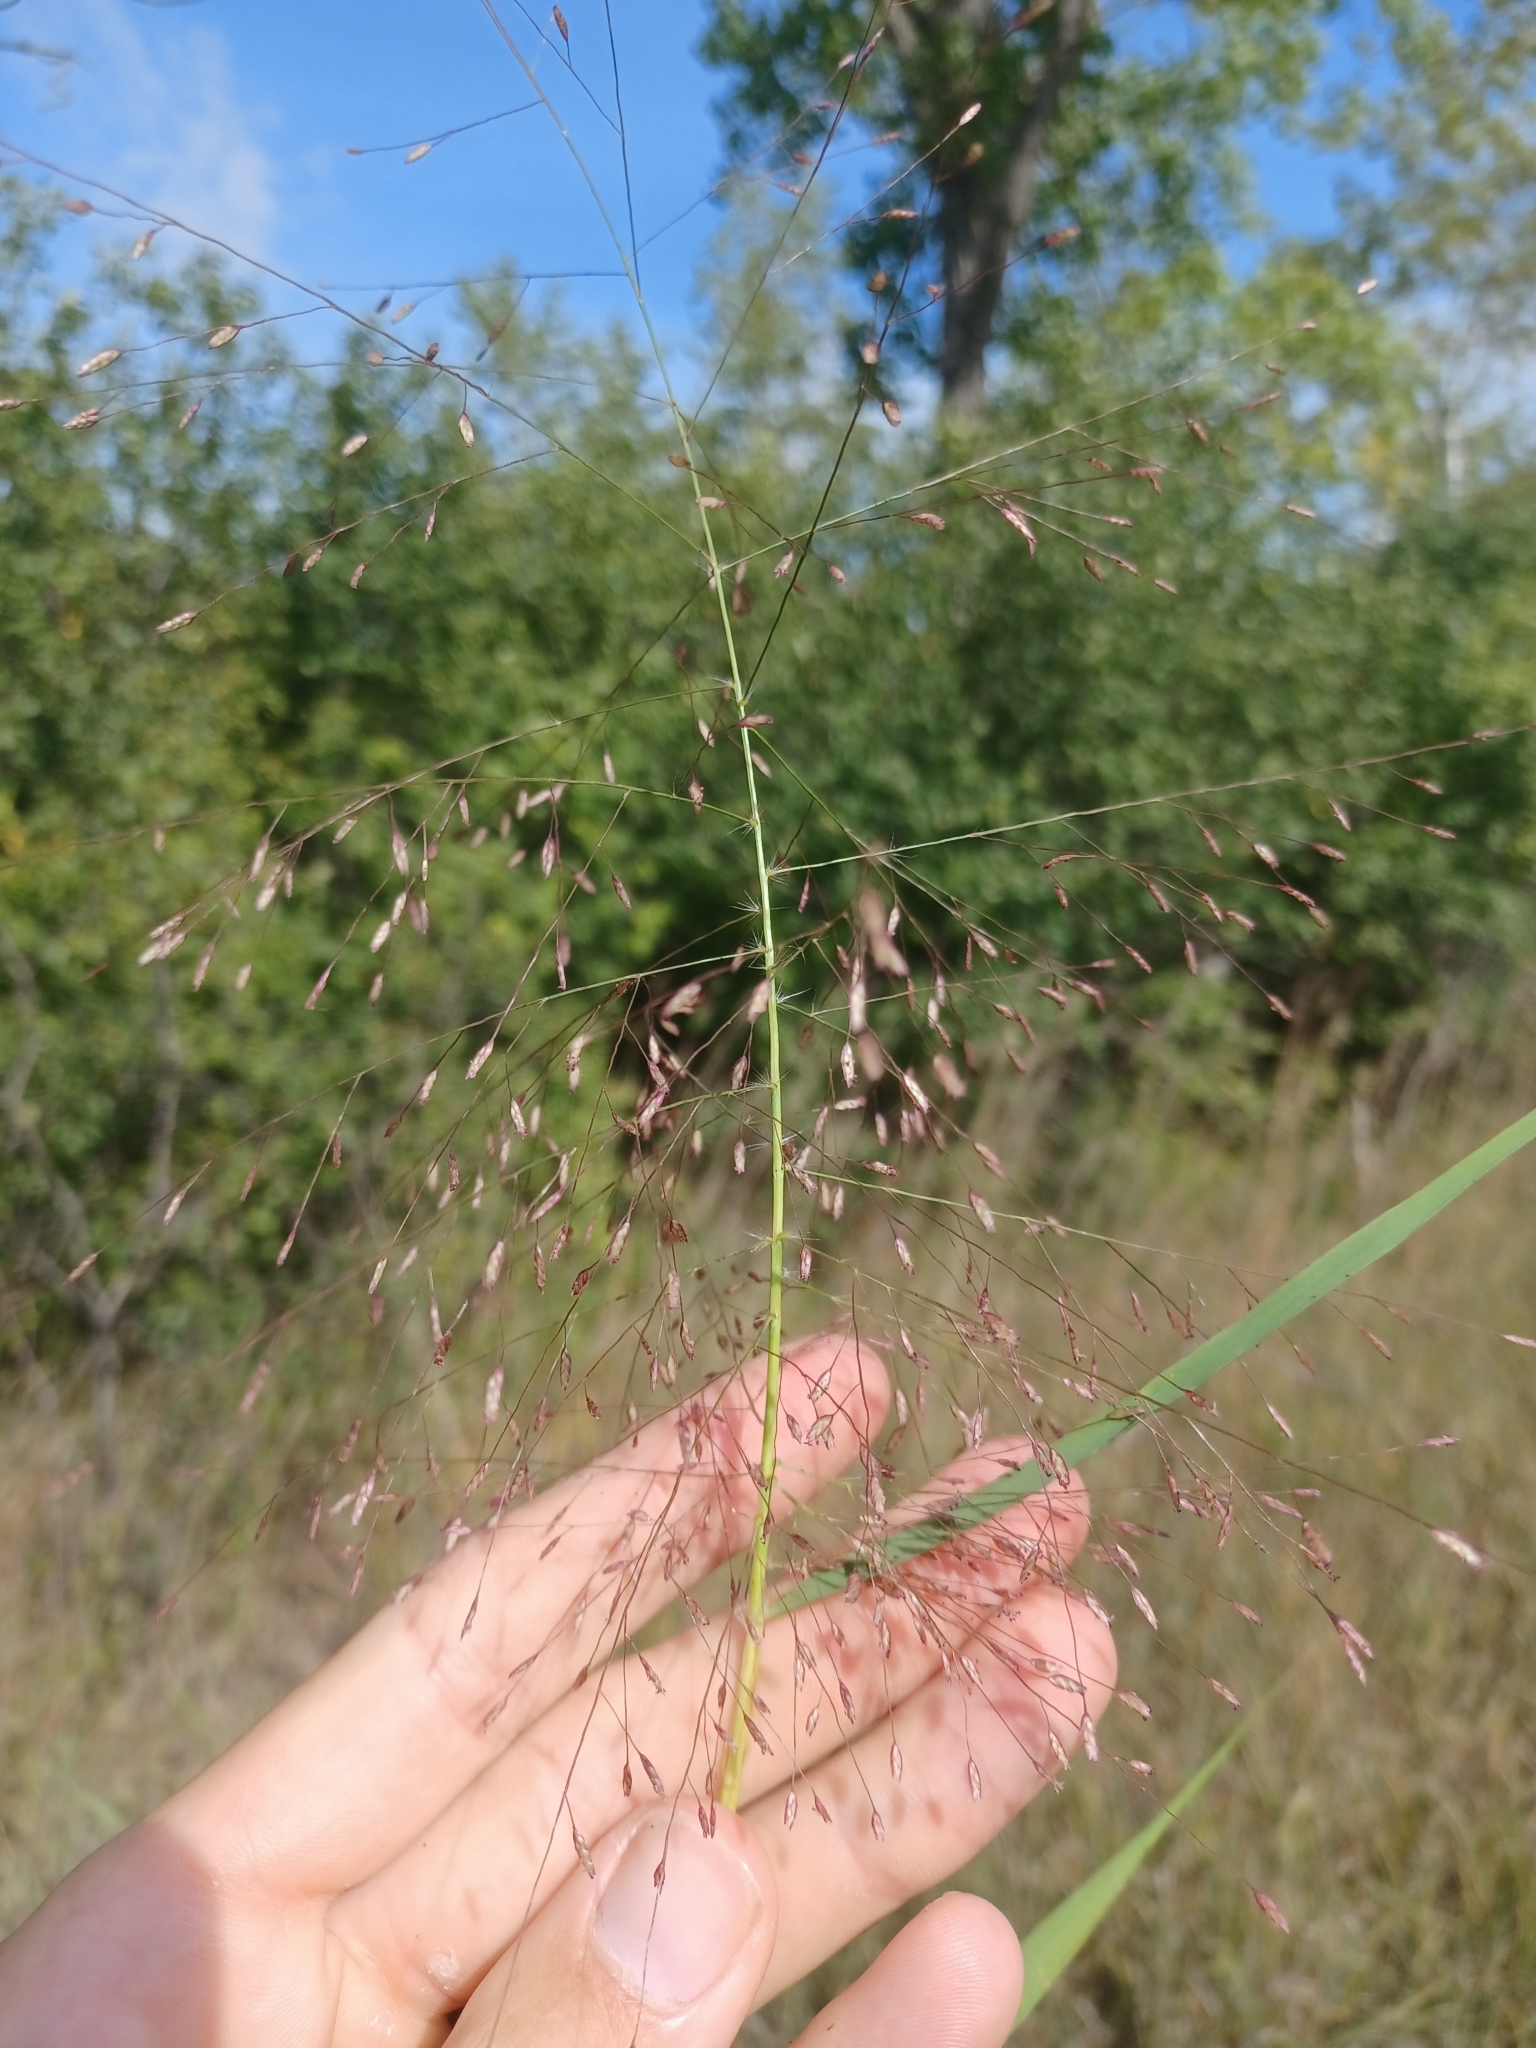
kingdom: Plantae
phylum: Tracheophyta
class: Liliopsida
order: Poales
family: Poaceae
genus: Eragrostis
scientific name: Eragrostis spectabilis
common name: Petticoat-climber
